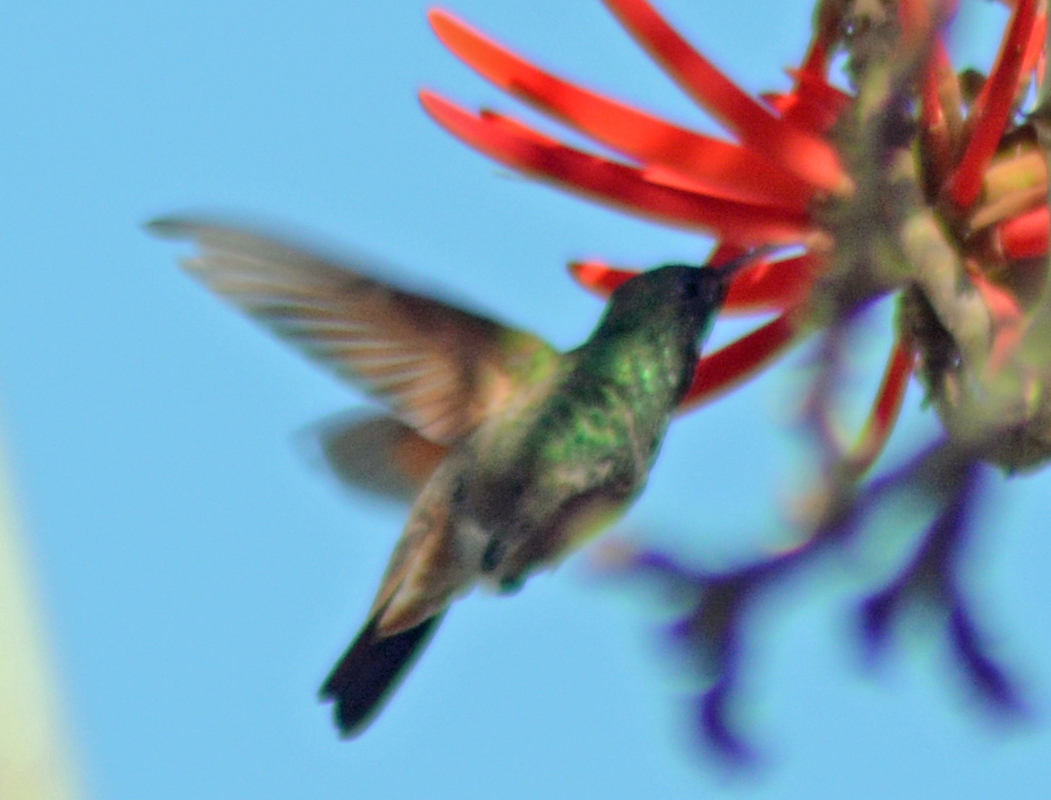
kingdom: Animalia
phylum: Chordata
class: Aves
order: Apodiformes
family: Trochilidae
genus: Saucerottia
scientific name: Saucerottia beryllina
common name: Berylline hummingbird
